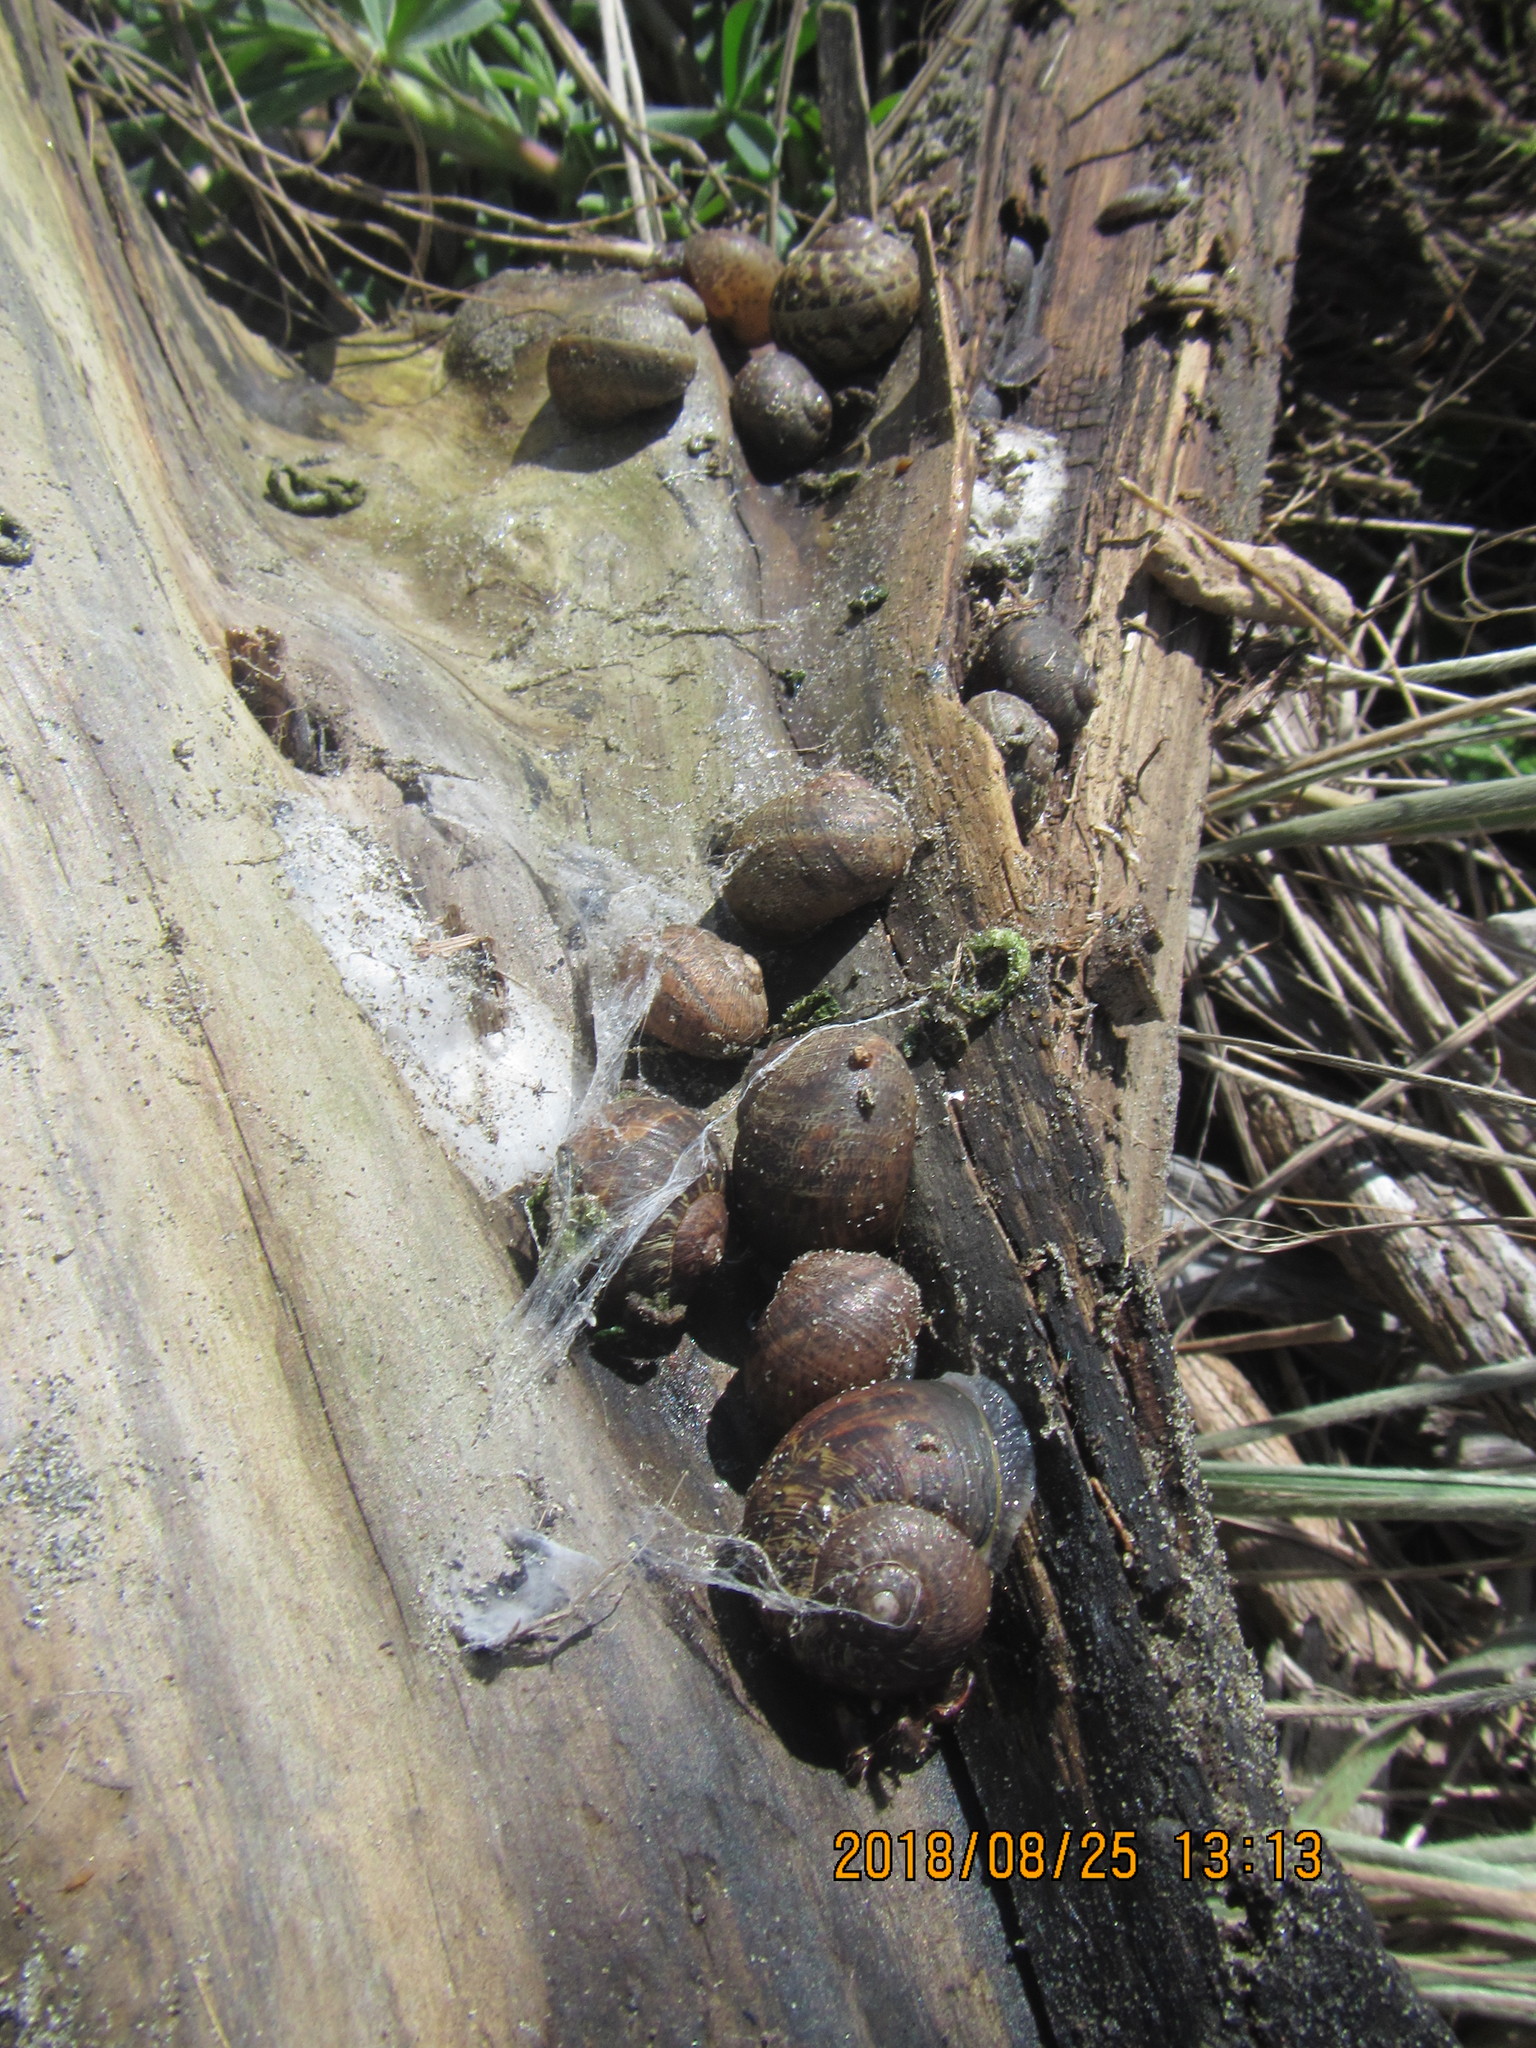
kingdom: Animalia
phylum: Mollusca
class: Gastropoda
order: Stylommatophora
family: Helicidae
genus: Cornu
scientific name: Cornu aspersum
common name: Brown garden snail
